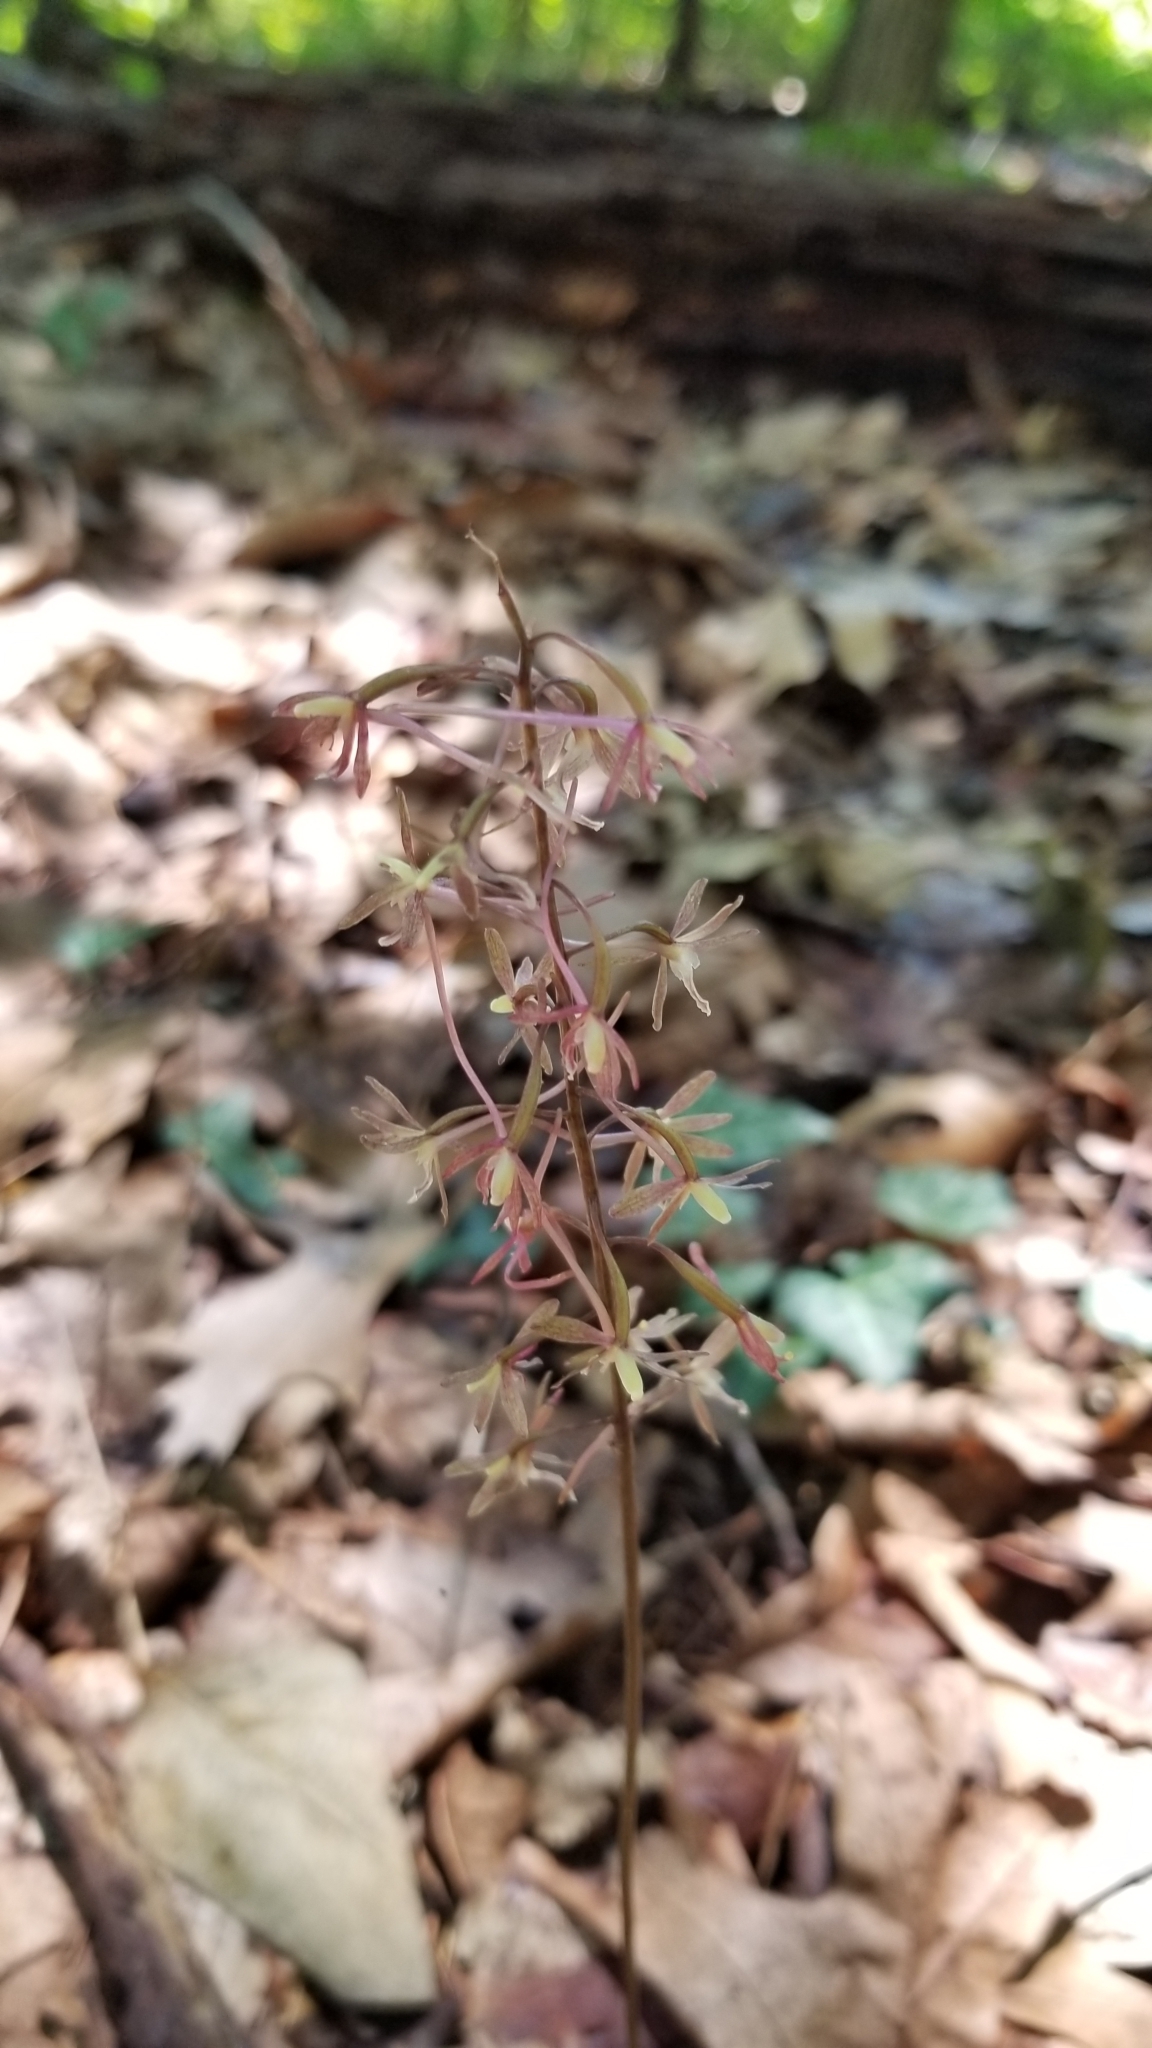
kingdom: Plantae
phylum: Tracheophyta
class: Liliopsida
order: Asparagales
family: Orchidaceae
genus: Tipularia
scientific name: Tipularia discolor
